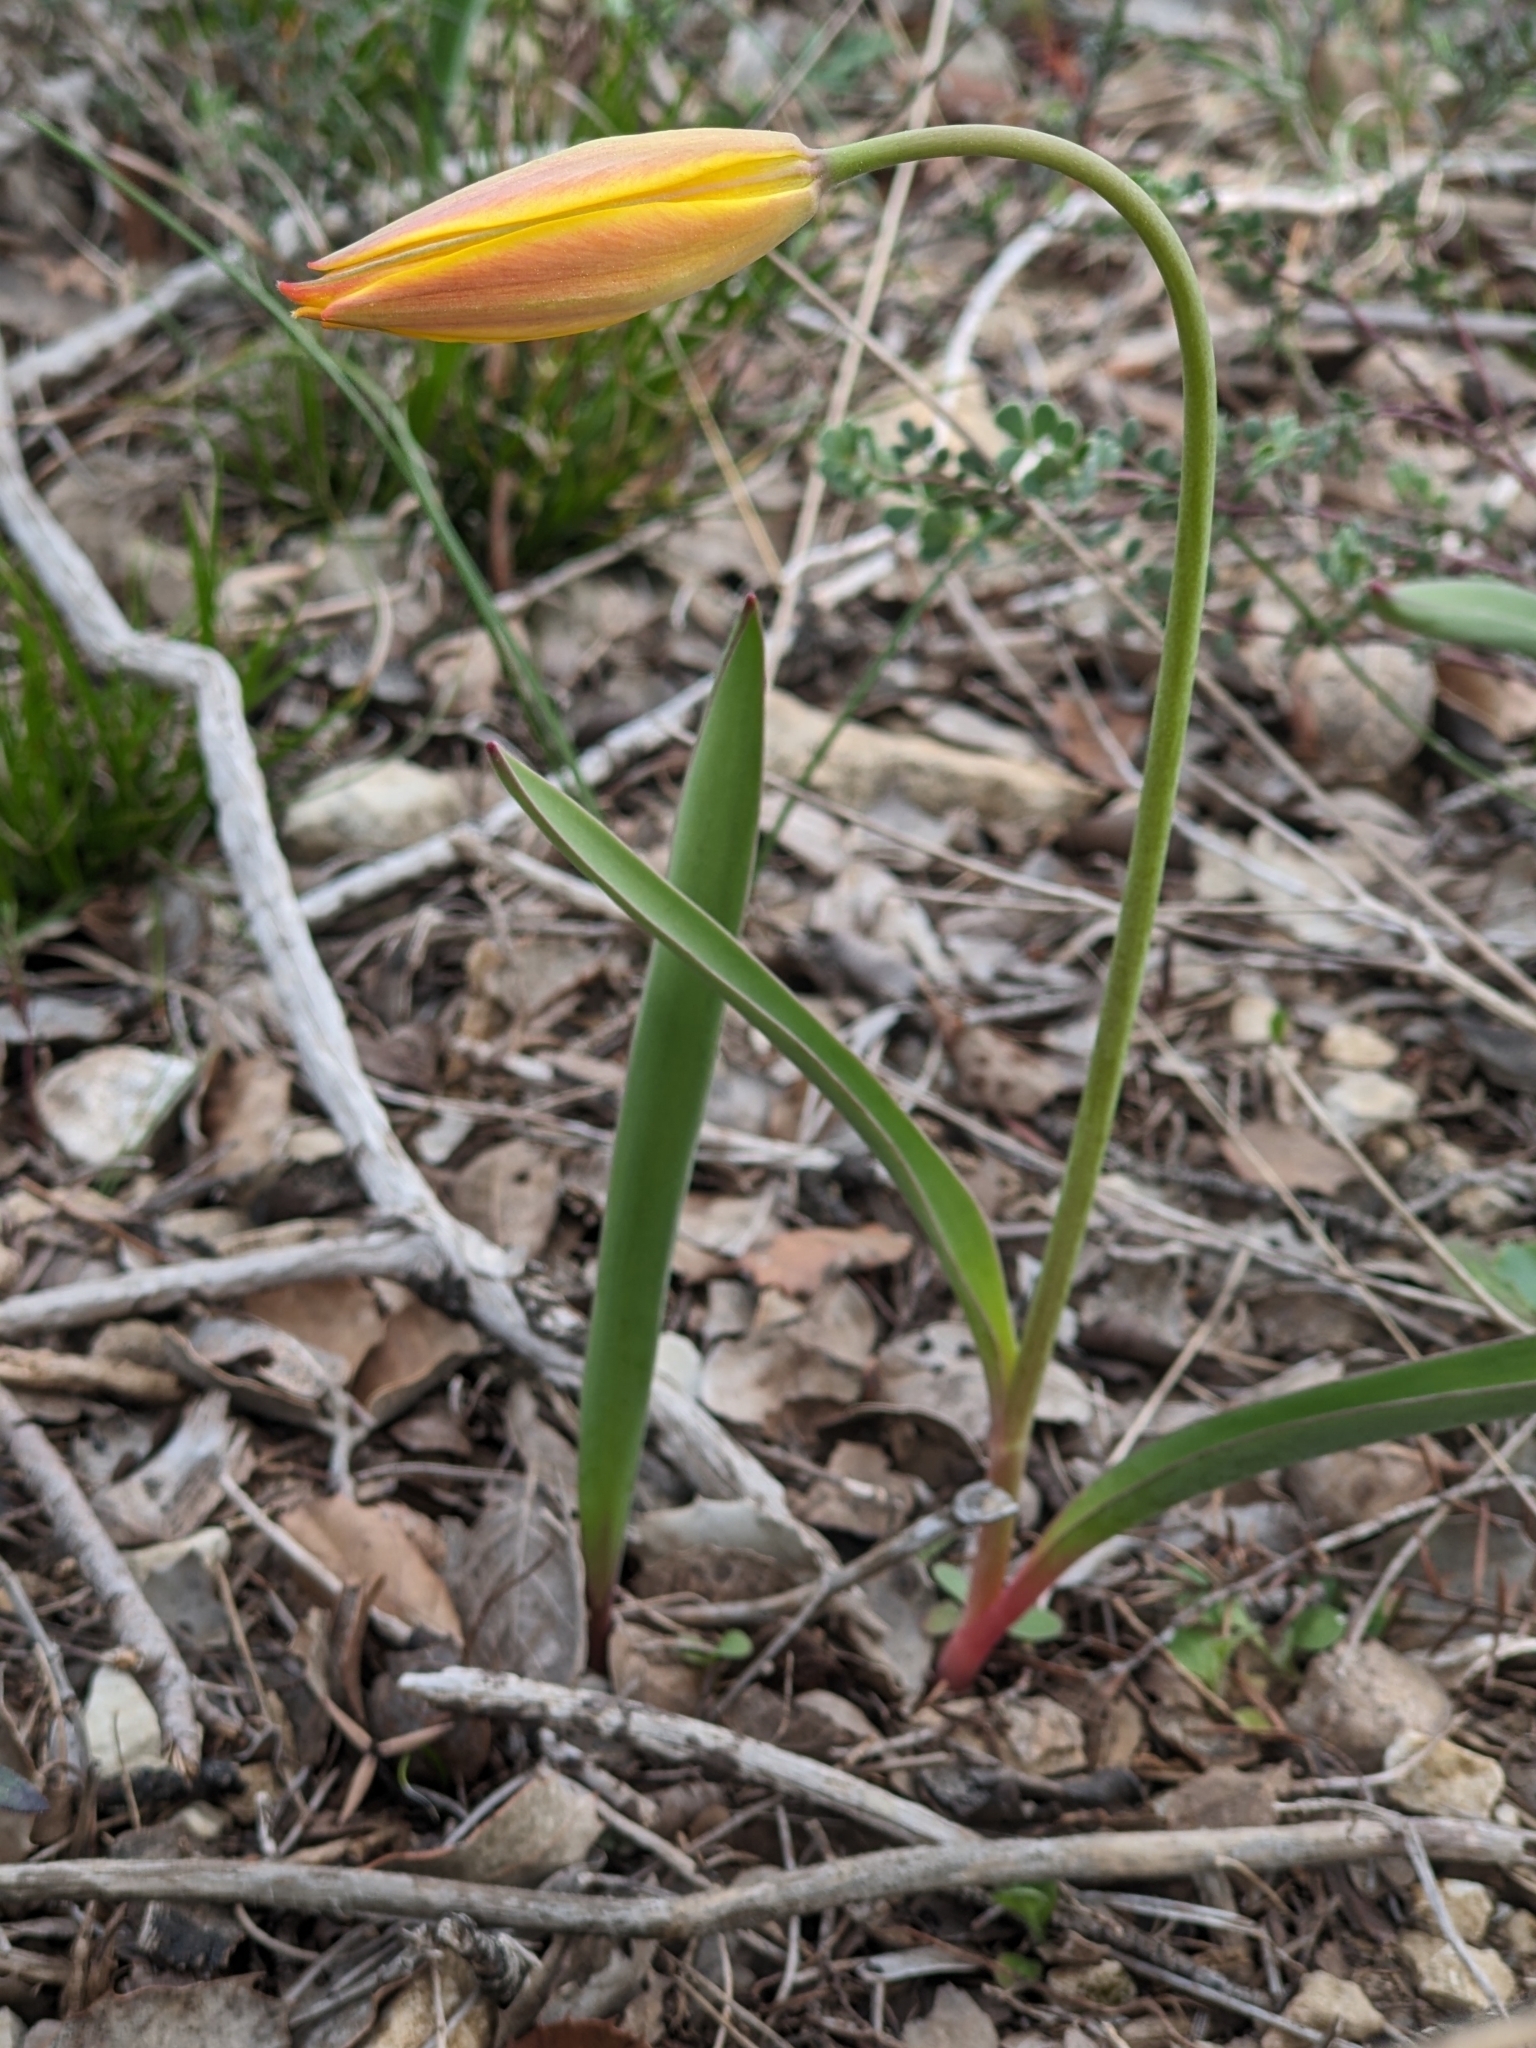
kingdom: Plantae
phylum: Tracheophyta
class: Liliopsida
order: Liliales
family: Liliaceae
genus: Tulipa
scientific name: Tulipa sylvestris
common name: Wild tulip
